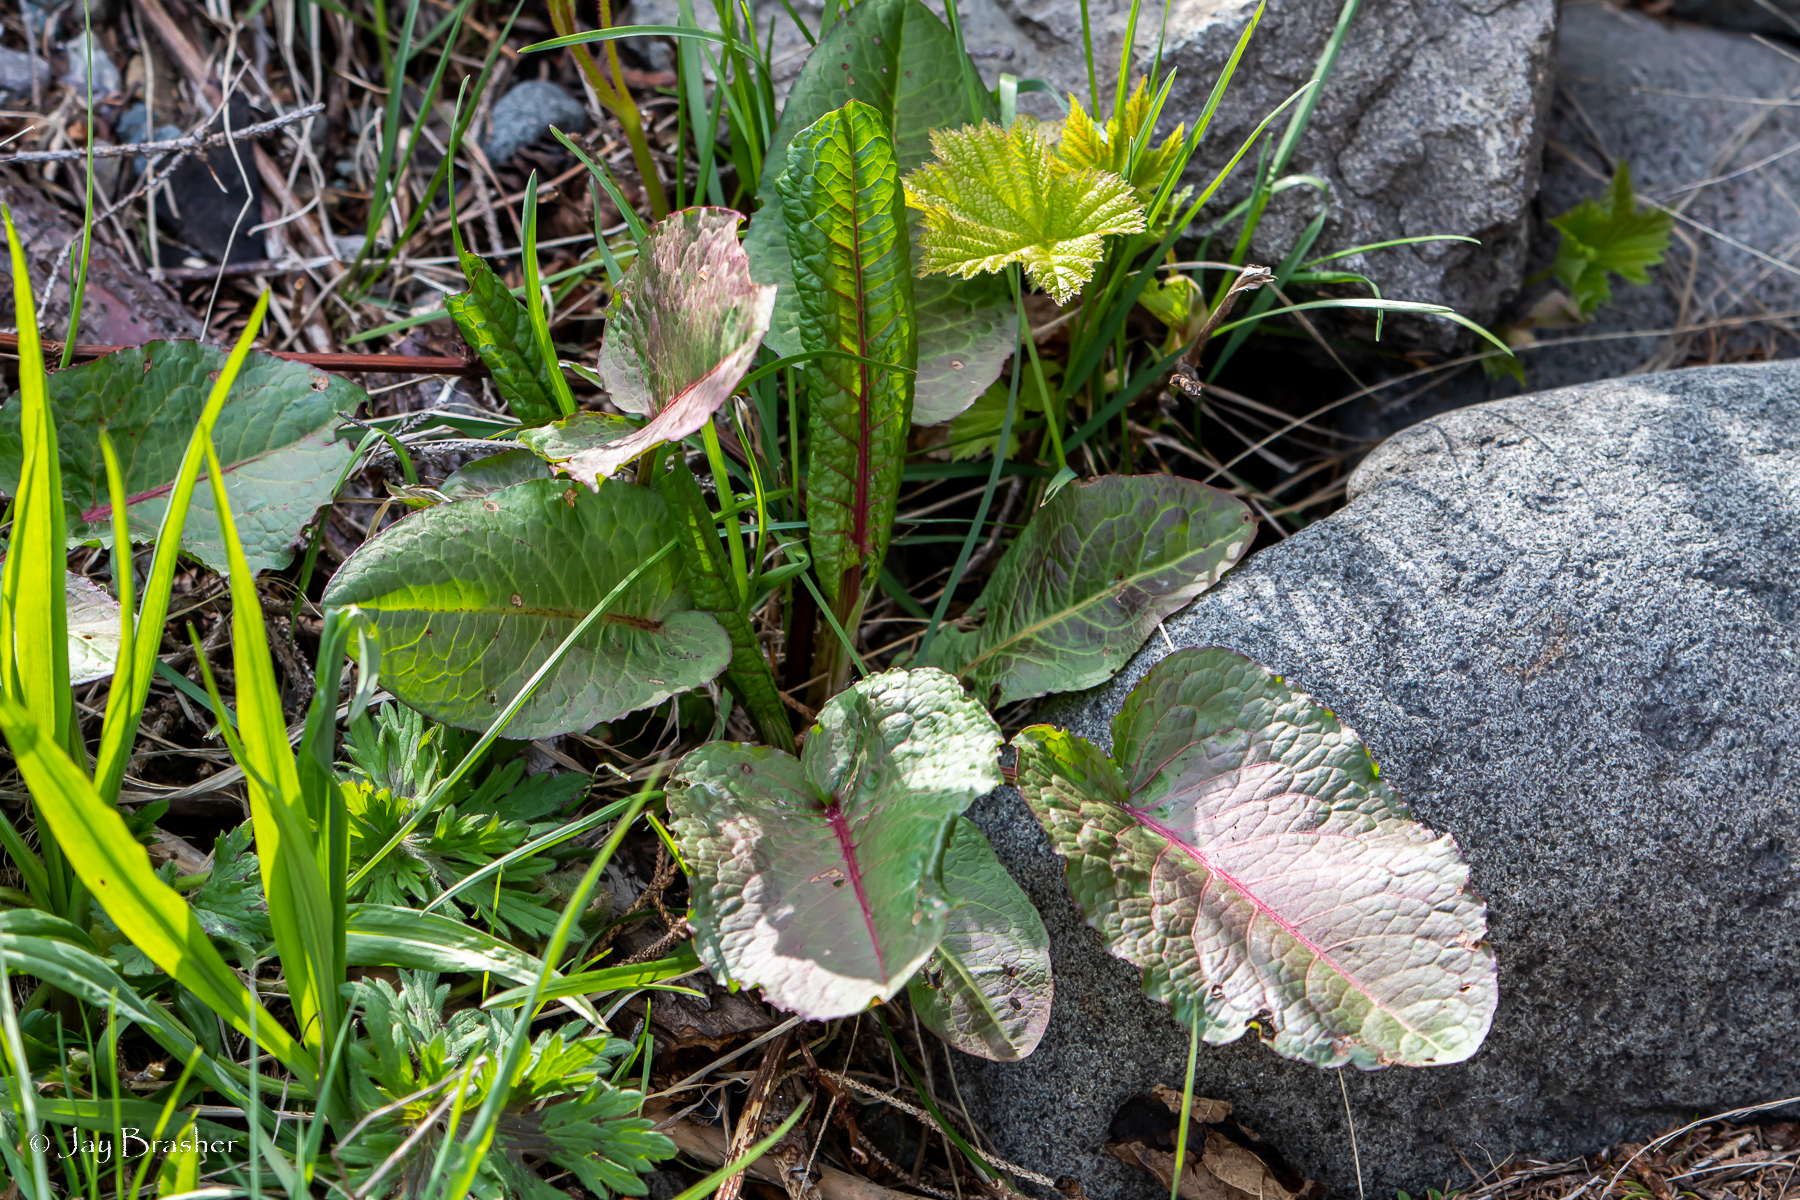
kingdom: Plantae
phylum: Tracheophyta
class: Magnoliopsida
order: Caryophyllales
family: Polygonaceae
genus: Rumex
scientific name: Rumex obtusifolius
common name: Bitter dock
